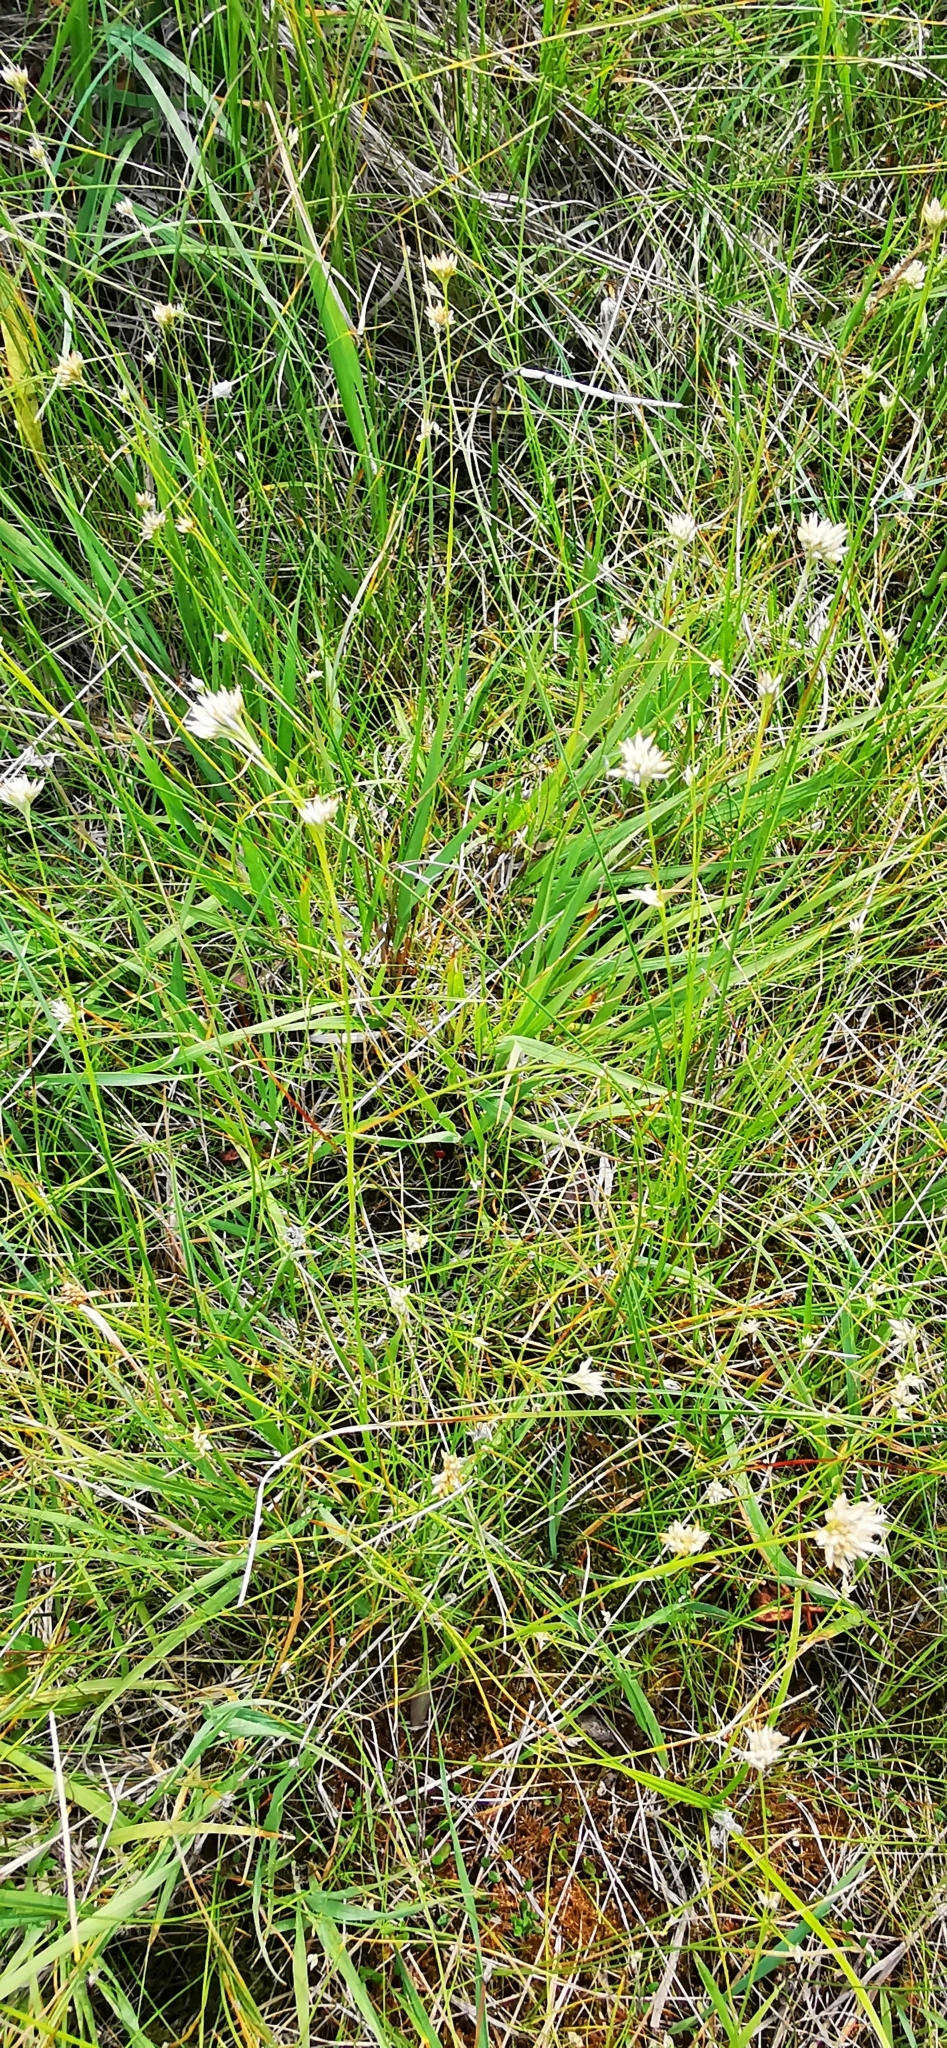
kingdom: Plantae
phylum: Tracheophyta
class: Liliopsida
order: Poales
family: Cyperaceae
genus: Rhynchospora
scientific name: Rhynchospora alba
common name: White beak-sedge
